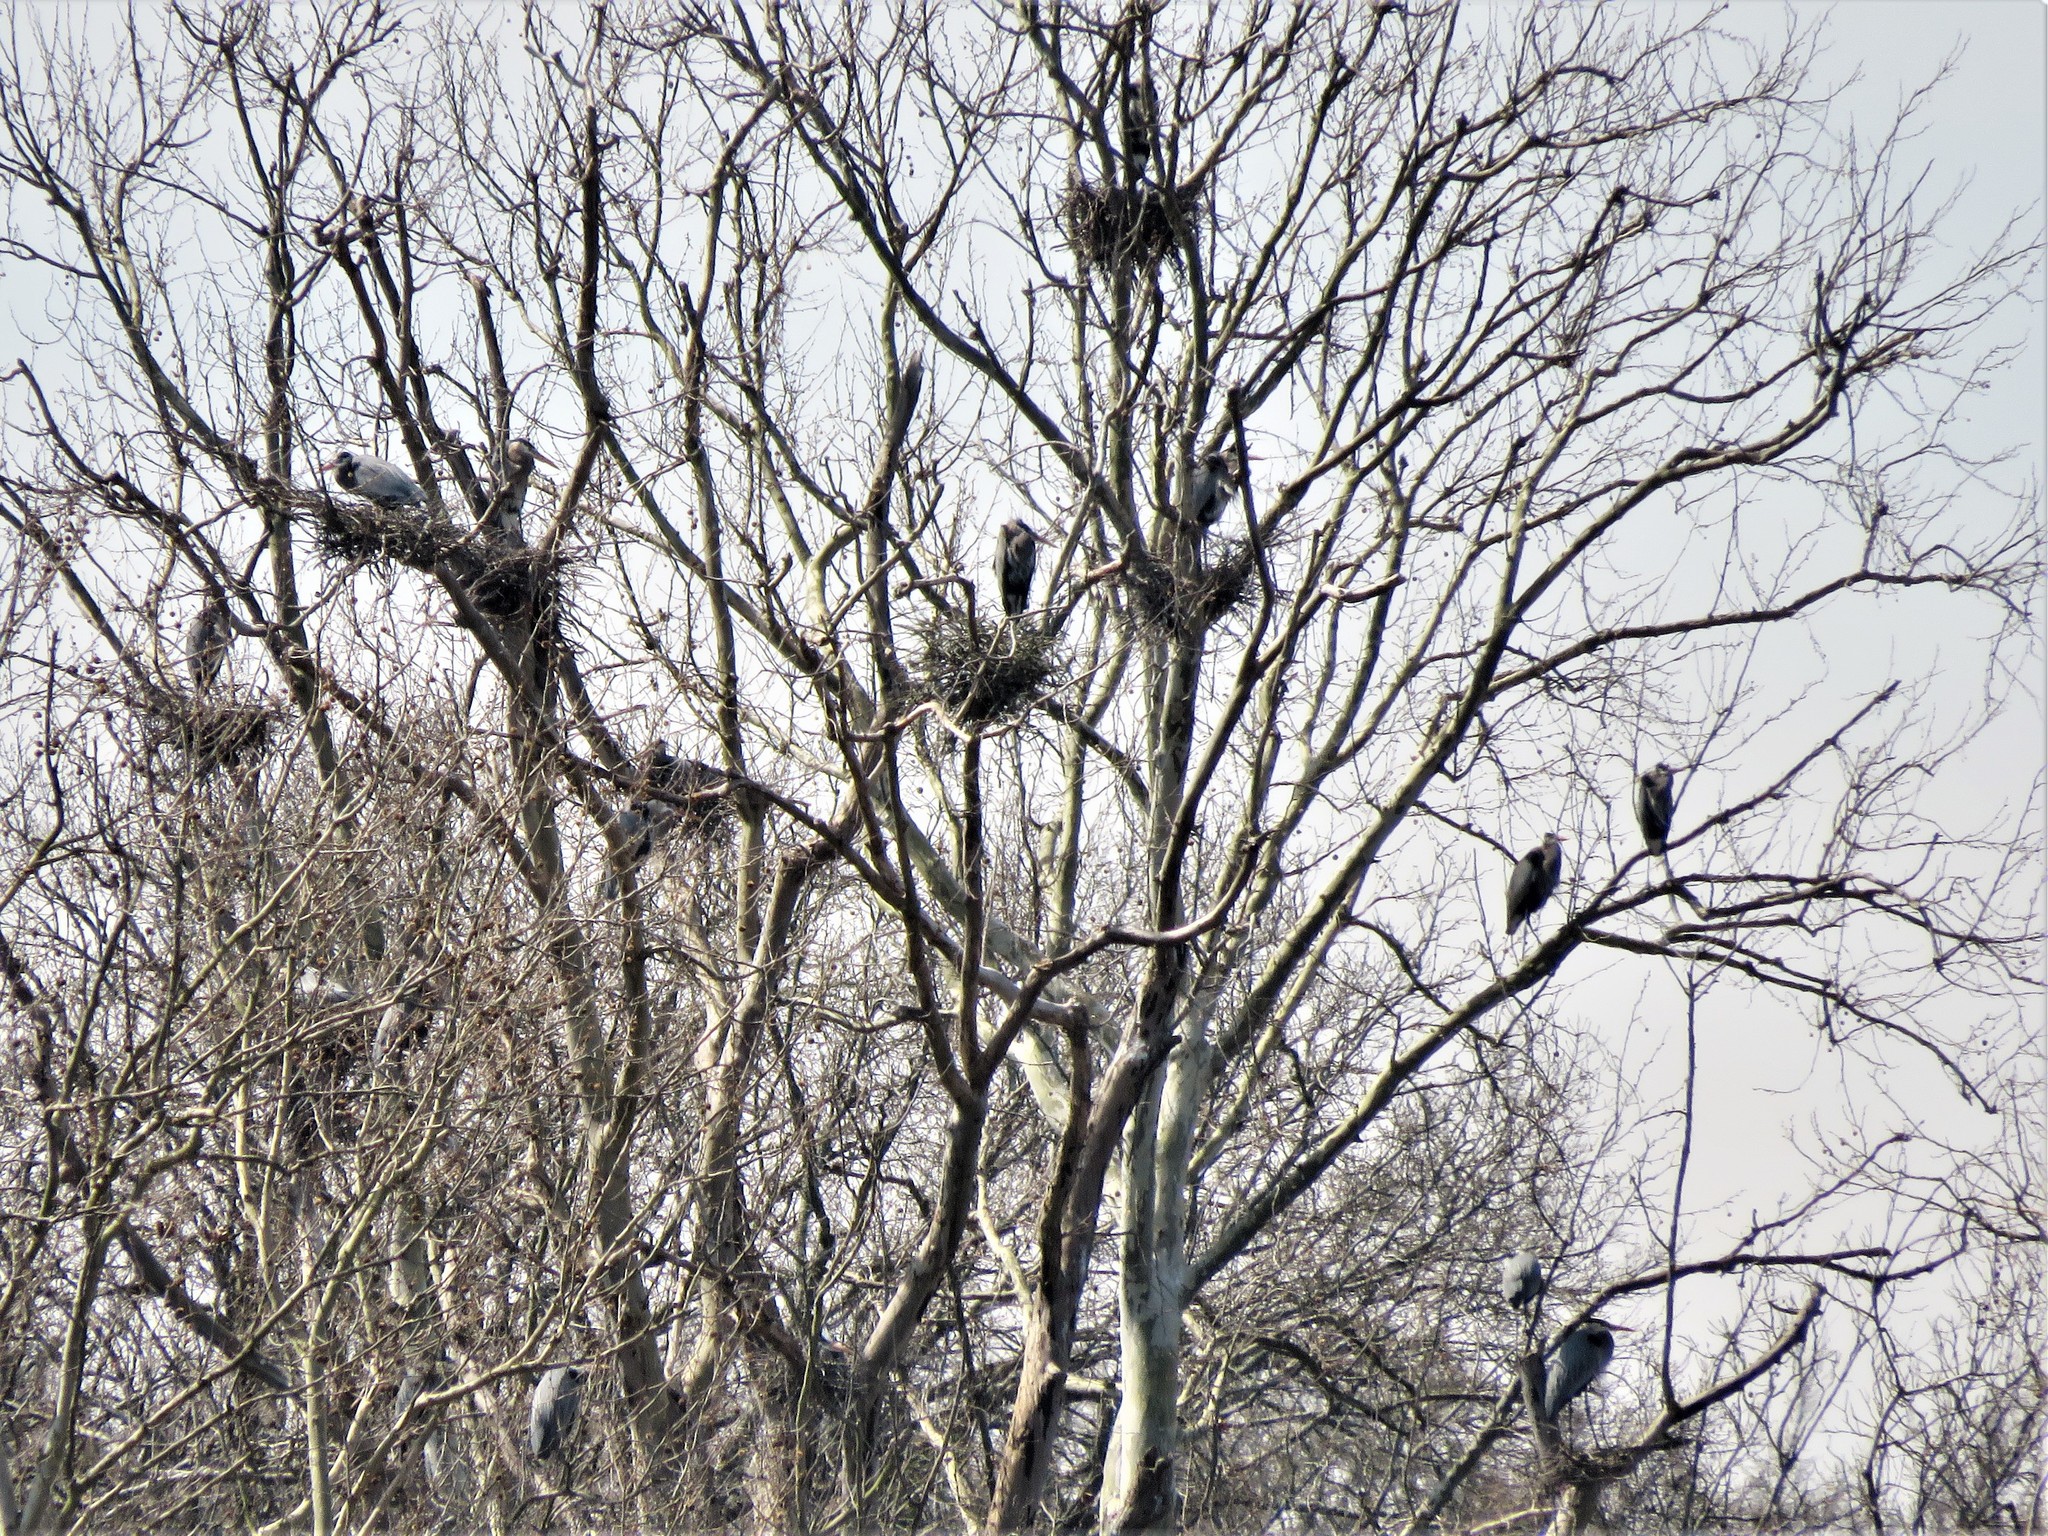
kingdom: Animalia
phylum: Chordata
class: Aves
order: Pelecaniformes
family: Ardeidae
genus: Ardea
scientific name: Ardea herodias
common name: Great blue heron
